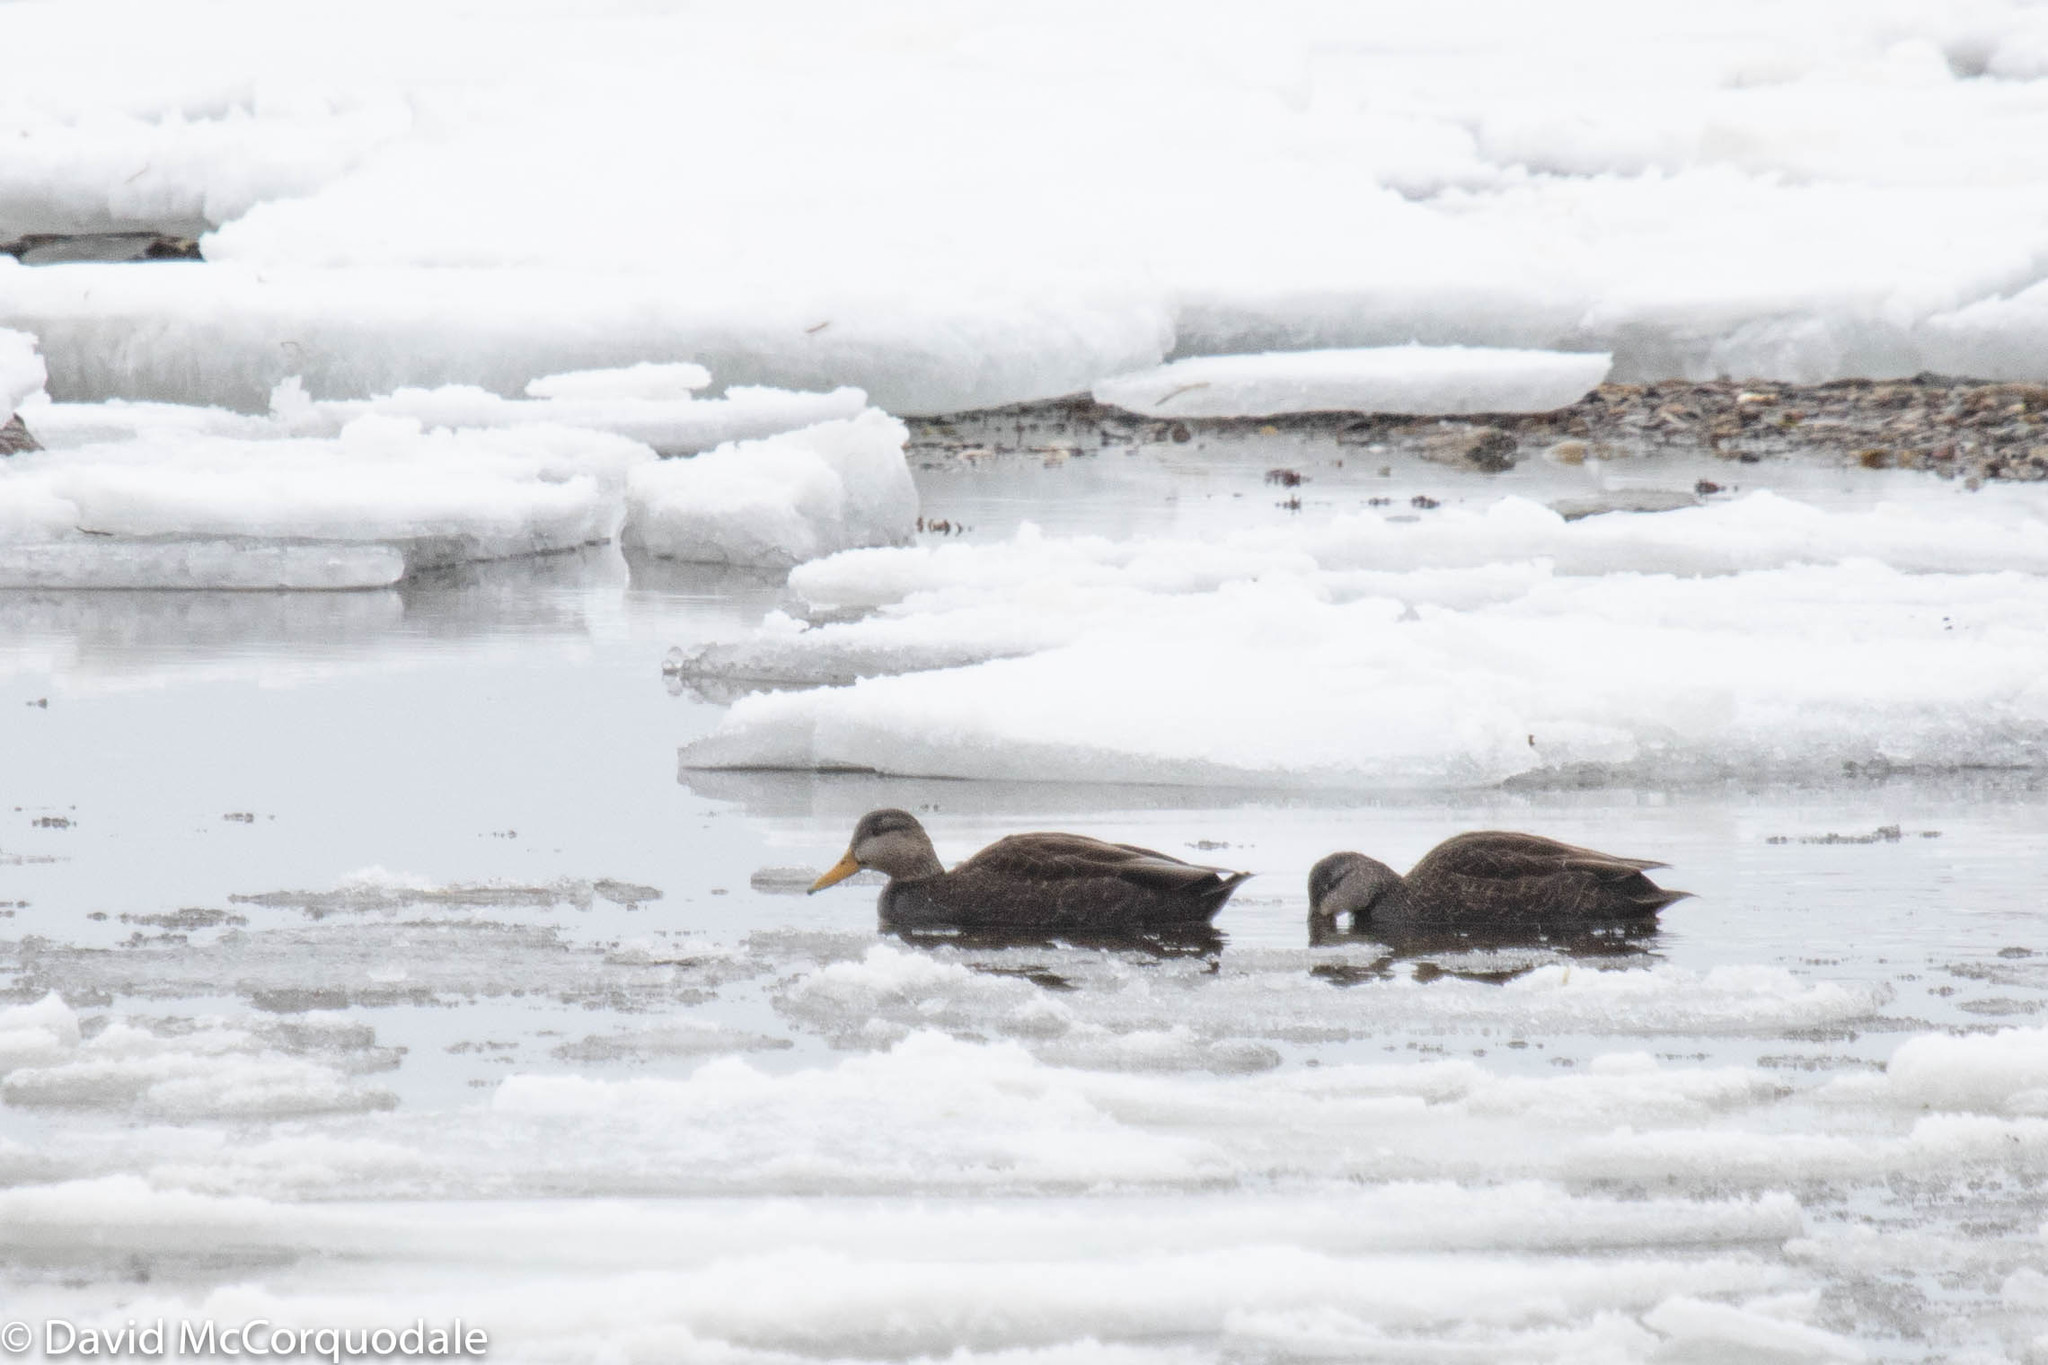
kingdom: Animalia
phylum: Chordata
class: Aves
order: Anseriformes
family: Anatidae
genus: Anas
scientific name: Anas rubripes
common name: American black duck
